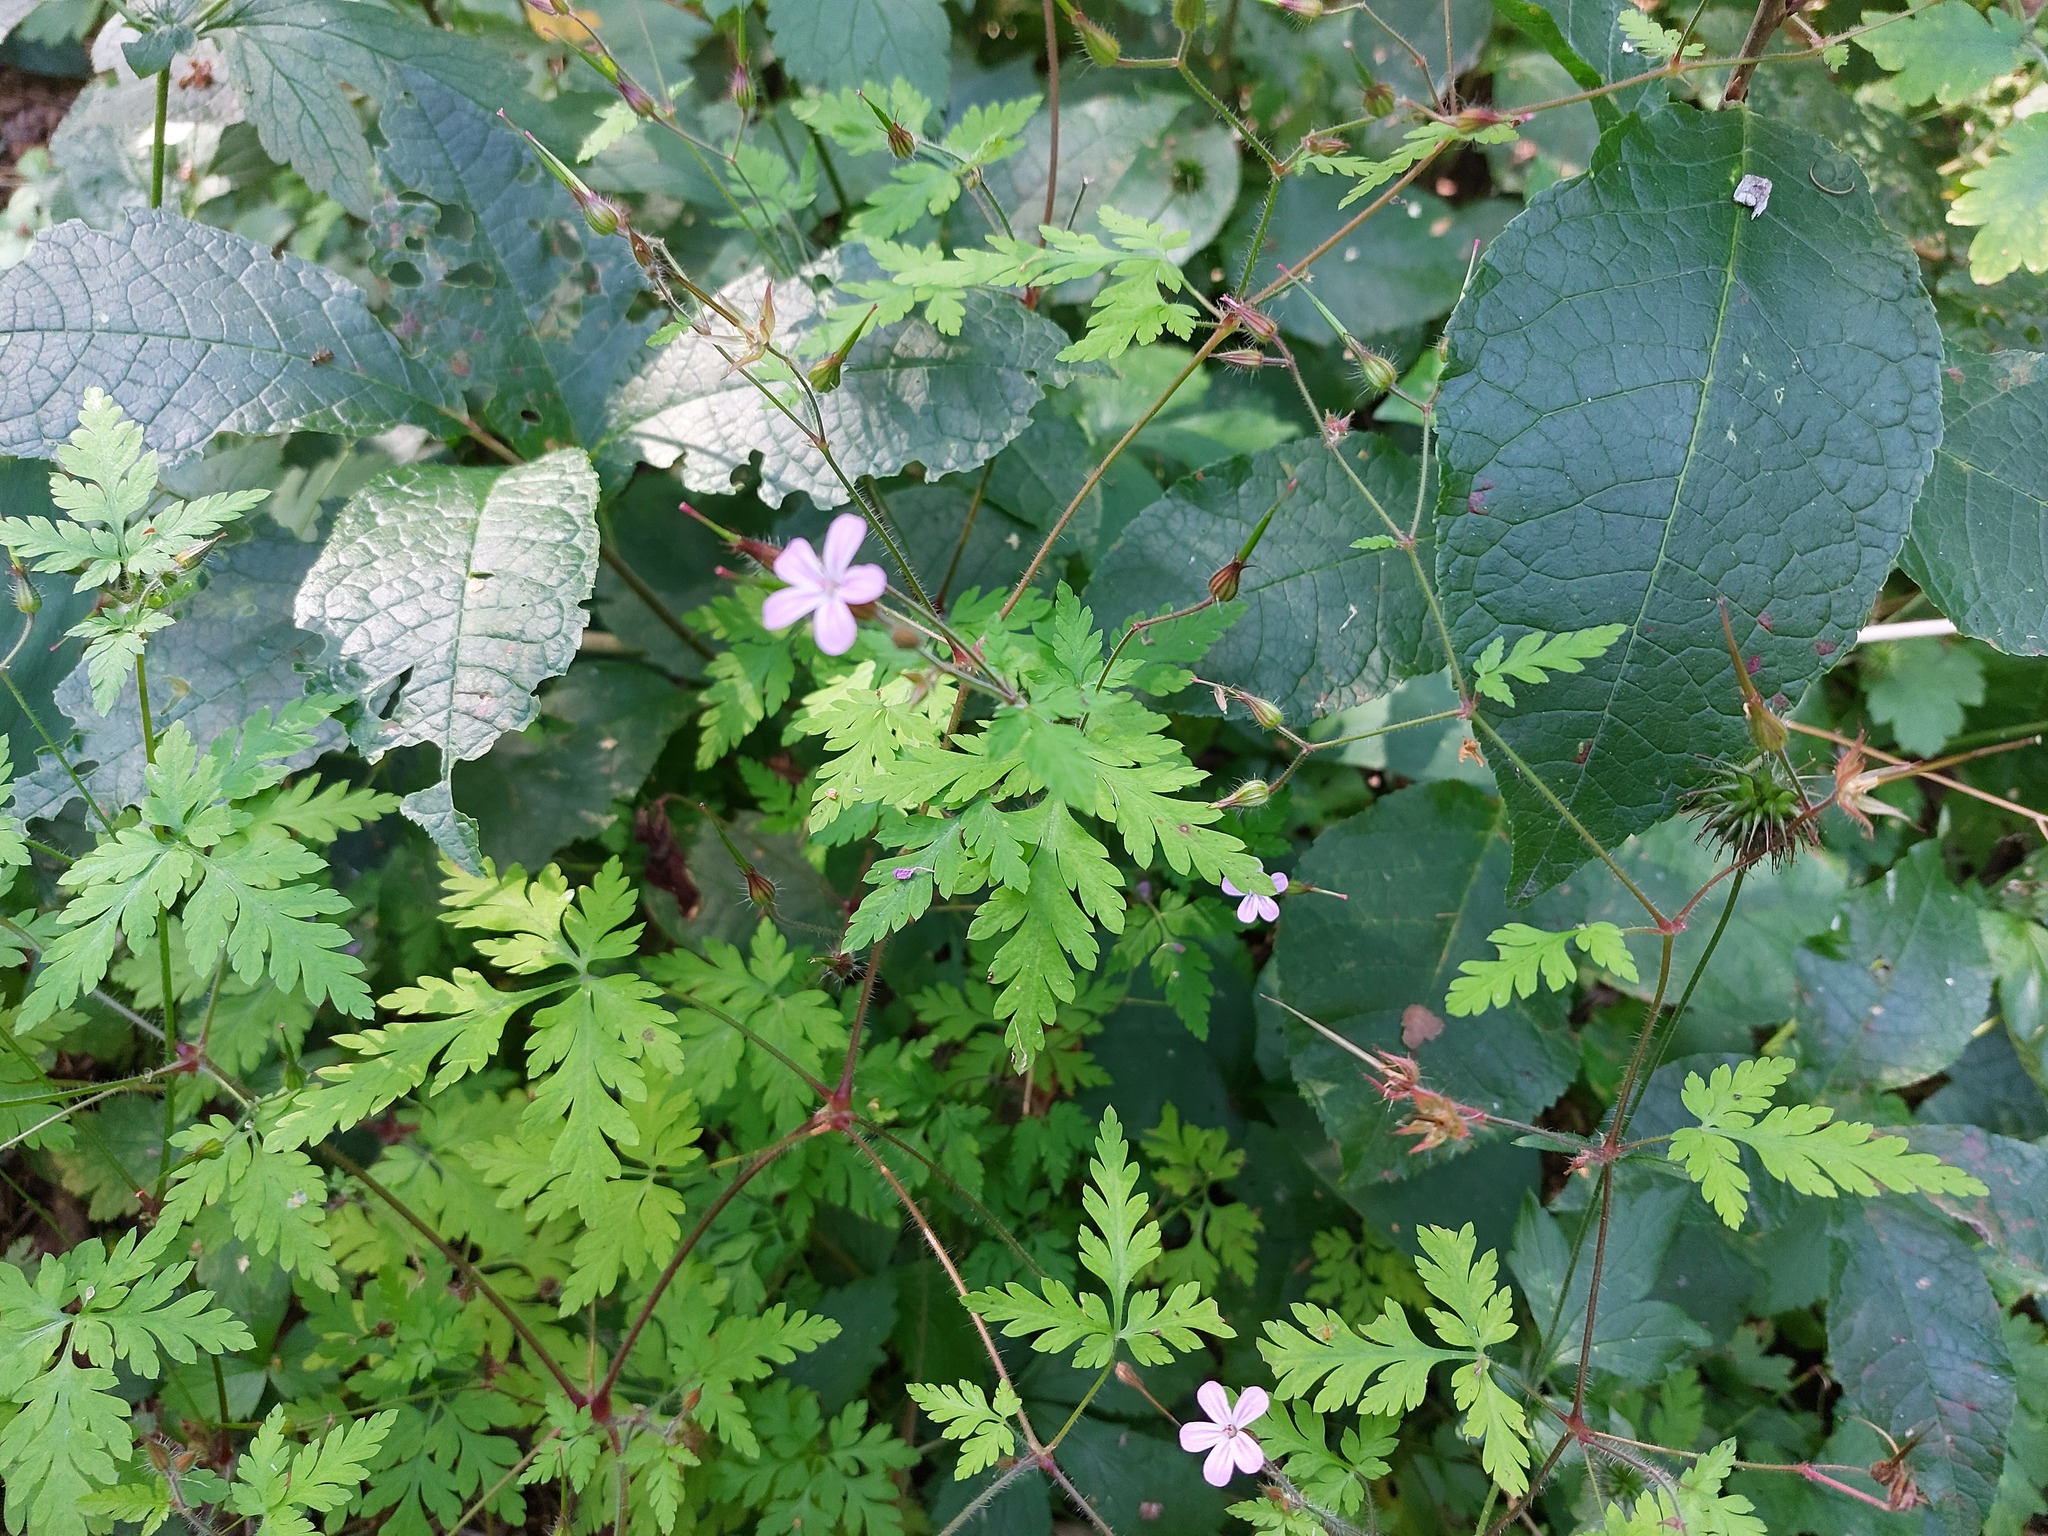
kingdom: Plantae
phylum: Tracheophyta
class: Magnoliopsida
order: Geraniales
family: Geraniaceae
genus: Geranium
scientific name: Geranium robertianum
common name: Herb-robert
